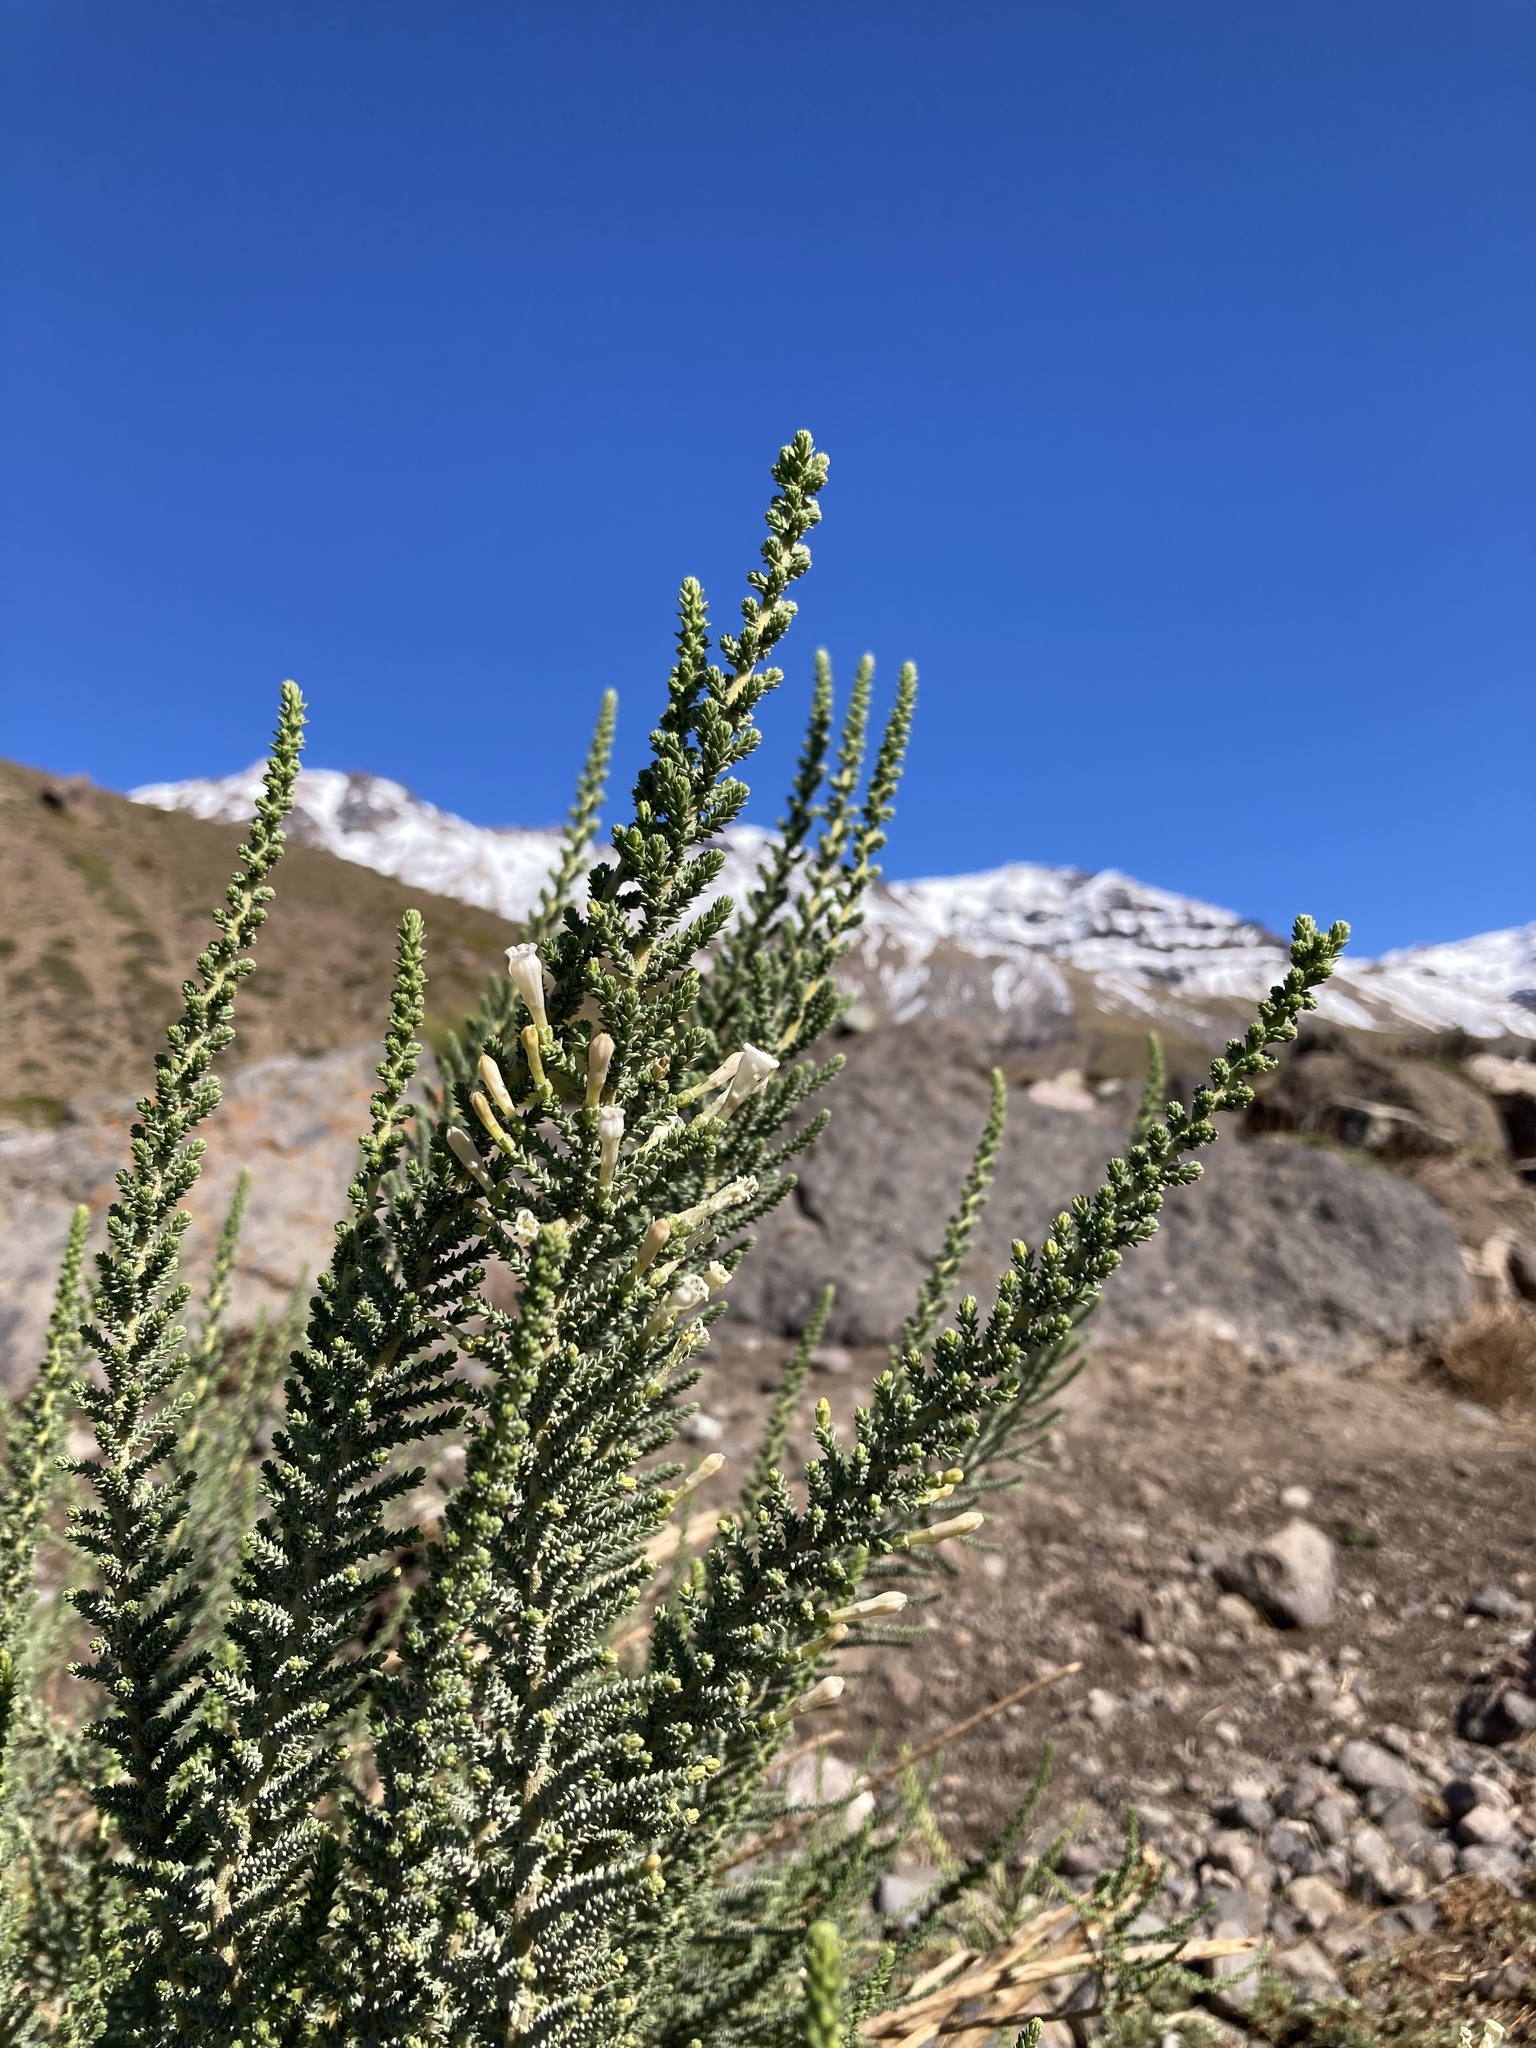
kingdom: Plantae
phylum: Tracheophyta
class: Magnoliopsida
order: Solanales
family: Solanaceae
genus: Fabiana
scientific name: Fabiana imbricata
